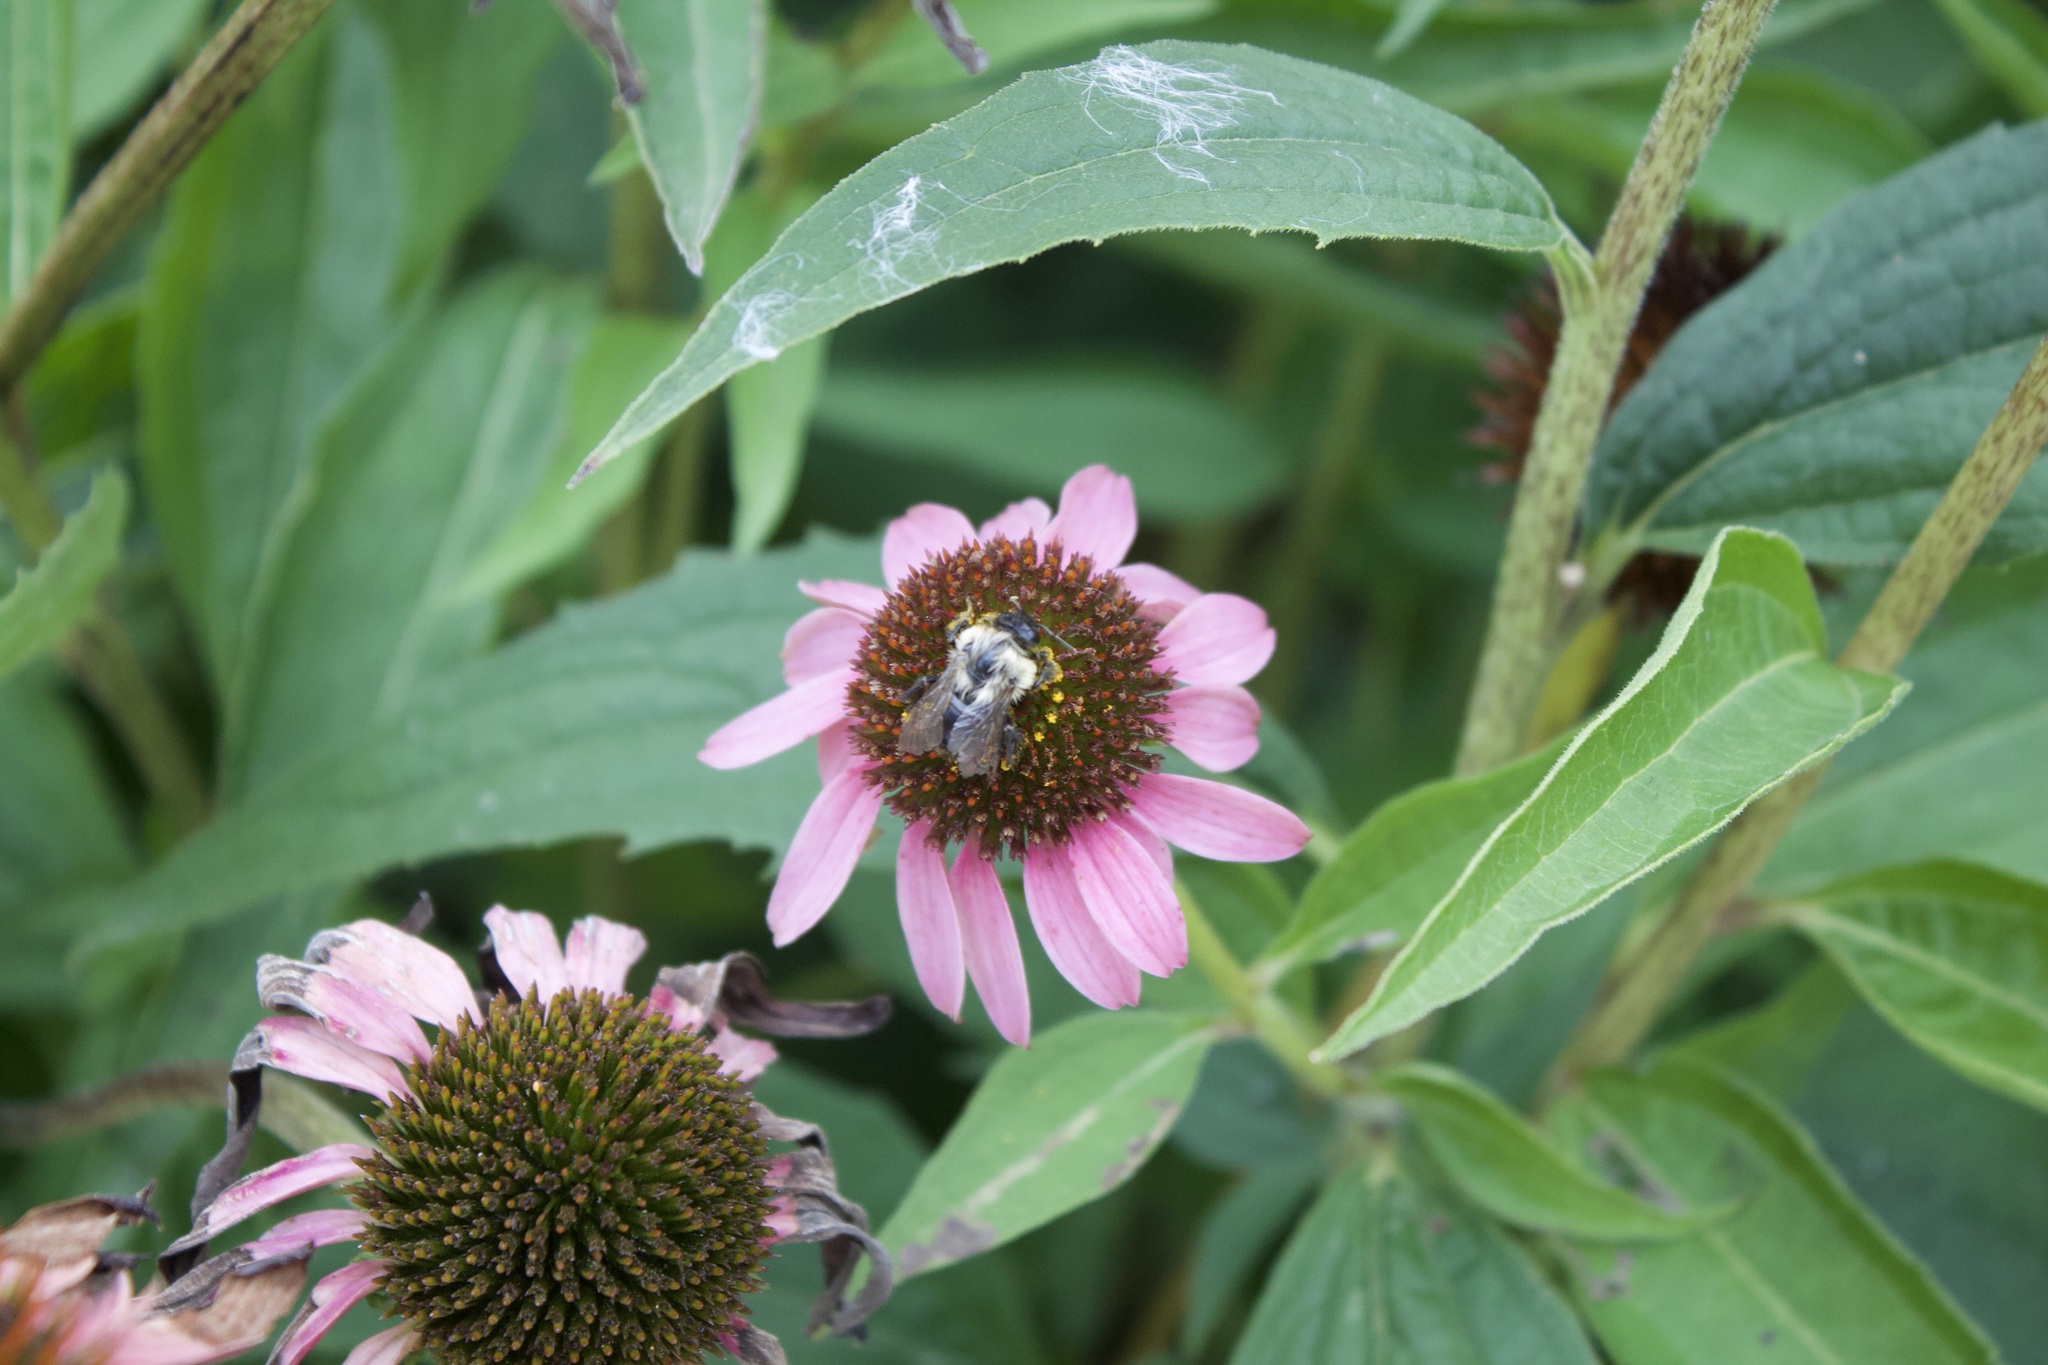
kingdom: Animalia
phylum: Arthropoda
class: Insecta
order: Hymenoptera
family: Apidae
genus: Bombus
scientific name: Bombus impatiens
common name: Common eastern bumble bee
